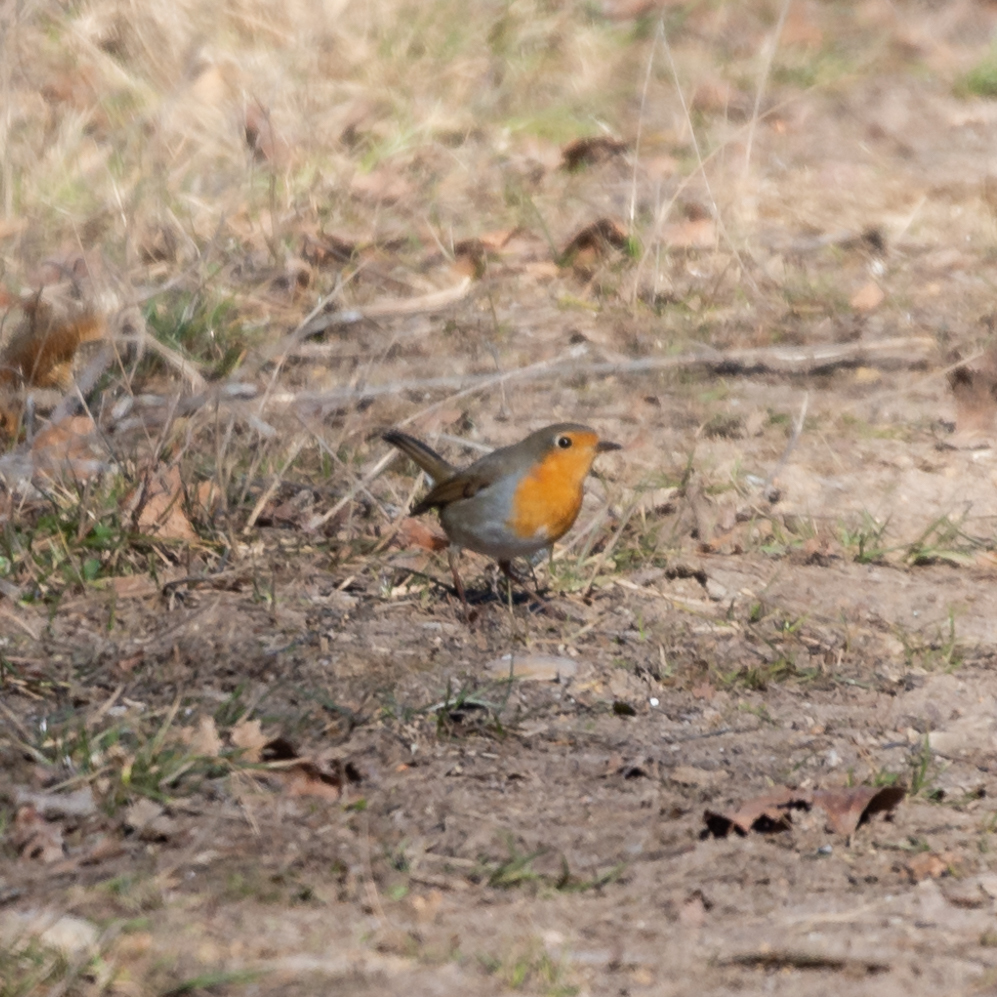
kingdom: Animalia
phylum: Chordata
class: Aves
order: Passeriformes
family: Muscicapidae
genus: Erithacus
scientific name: Erithacus rubecula
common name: European robin
